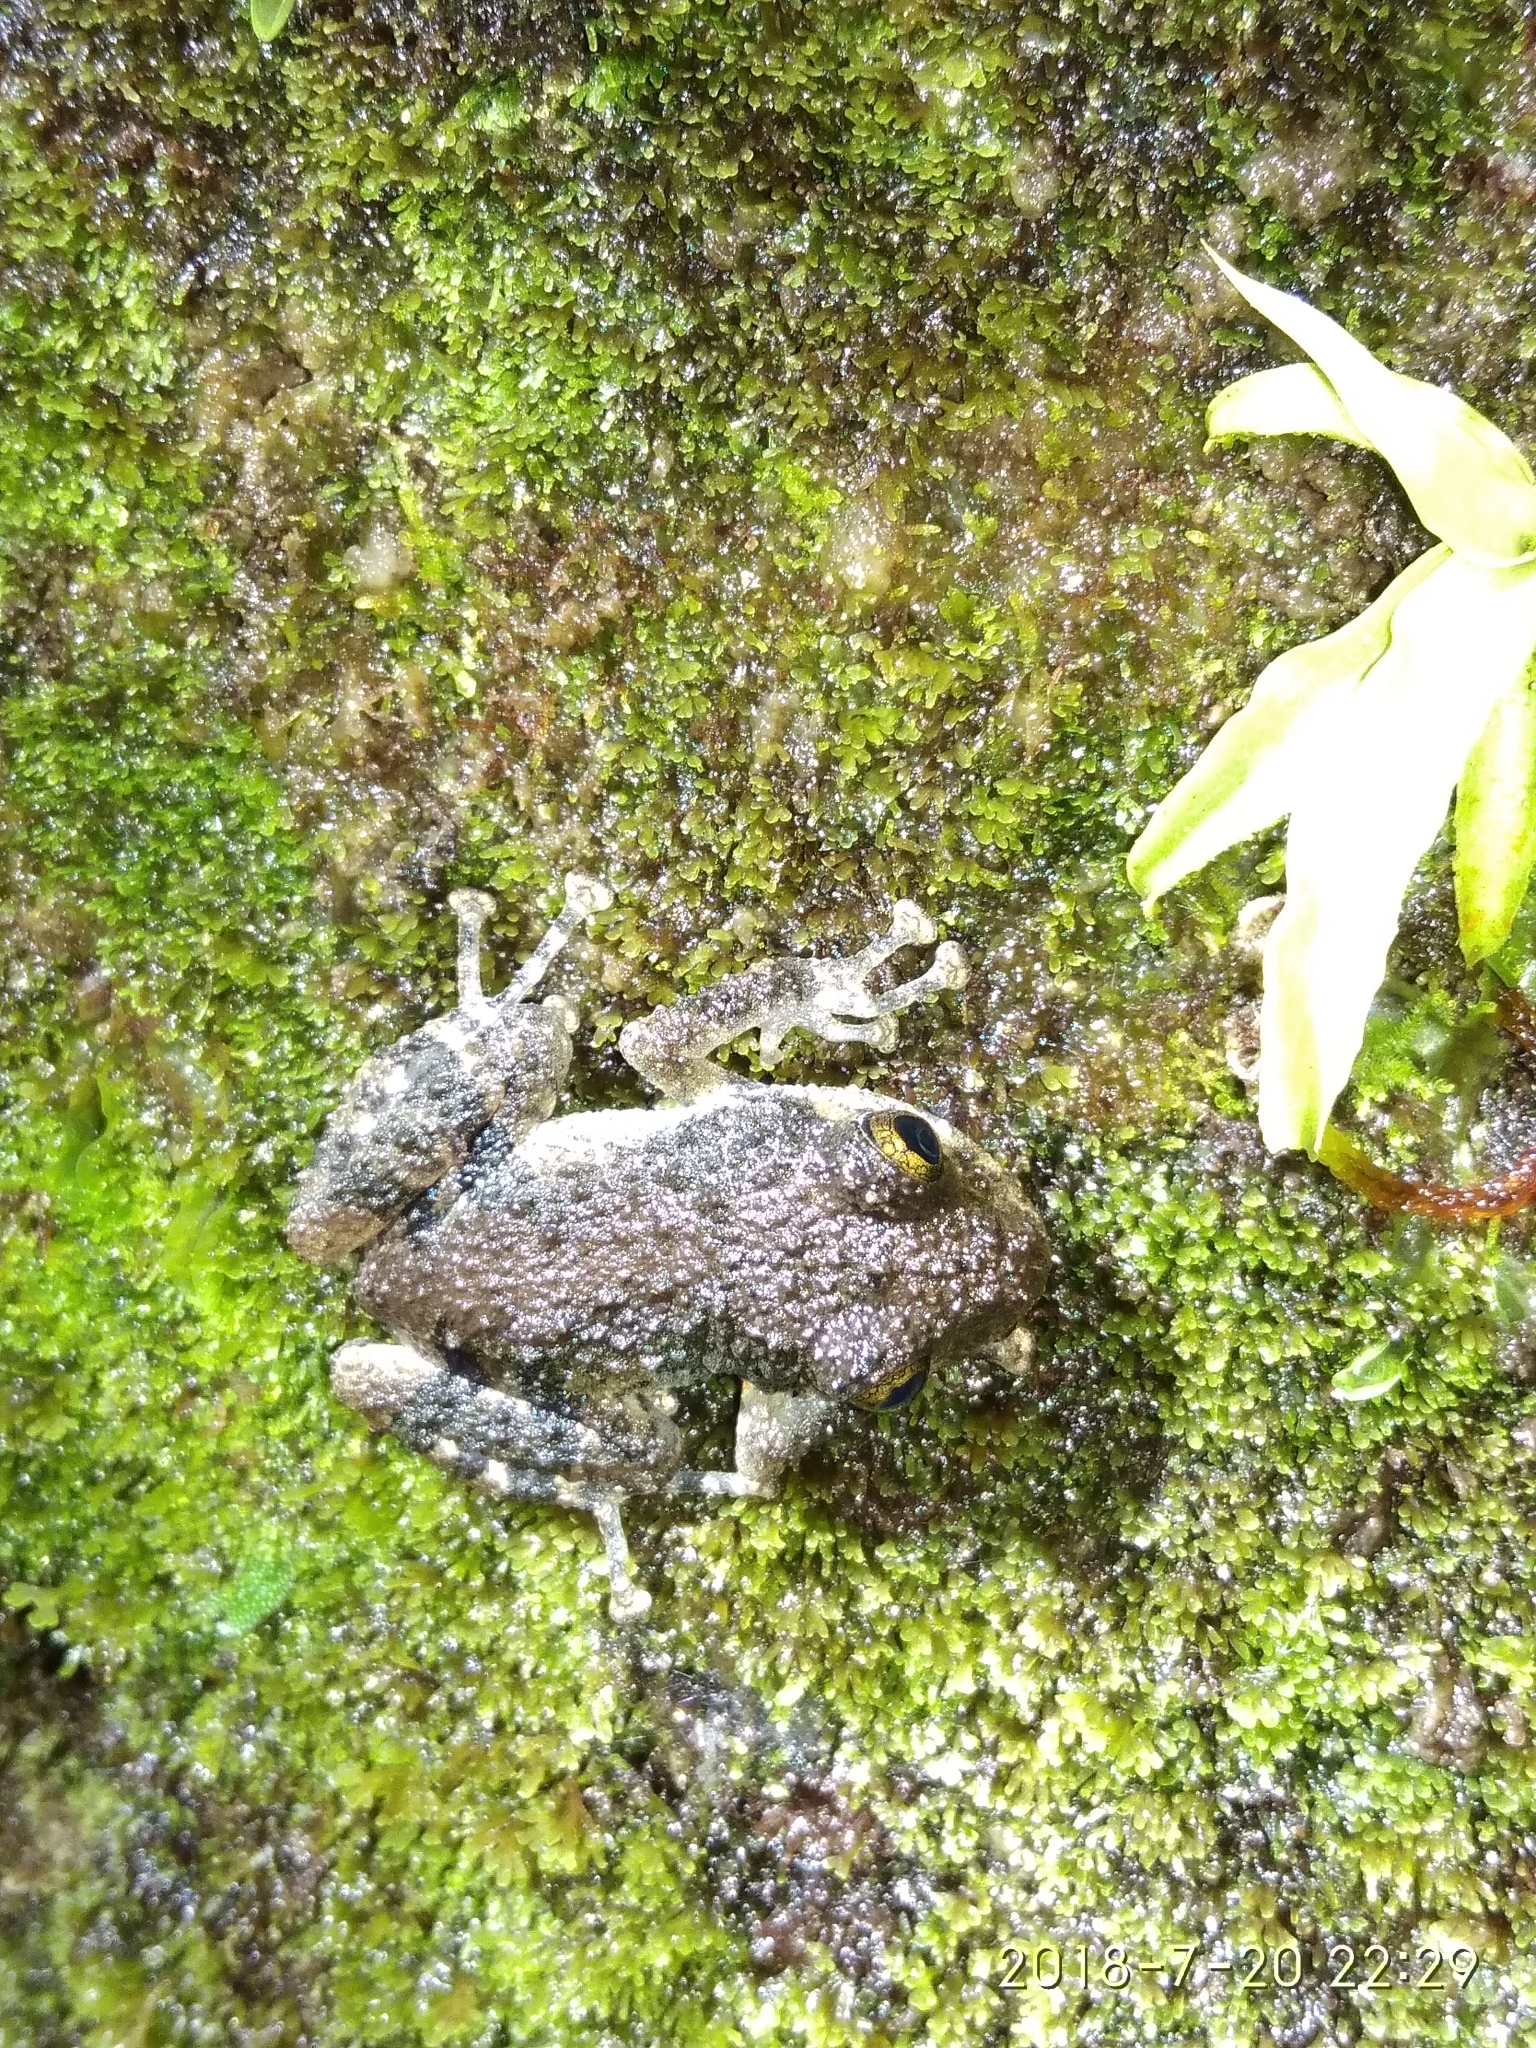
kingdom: Animalia
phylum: Chordata
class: Amphibia
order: Anura
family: Craugastoridae
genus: Pristimantis
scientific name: Pristimantis altamazonicus
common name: Amazon robber frog
